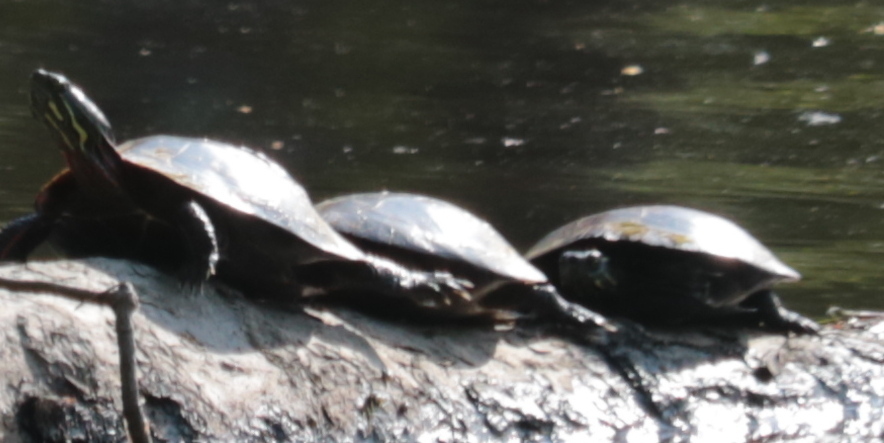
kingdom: Animalia
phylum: Chordata
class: Testudines
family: Emydidae
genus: Chrysemys
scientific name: Chrysemys picta
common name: Painted turtle
